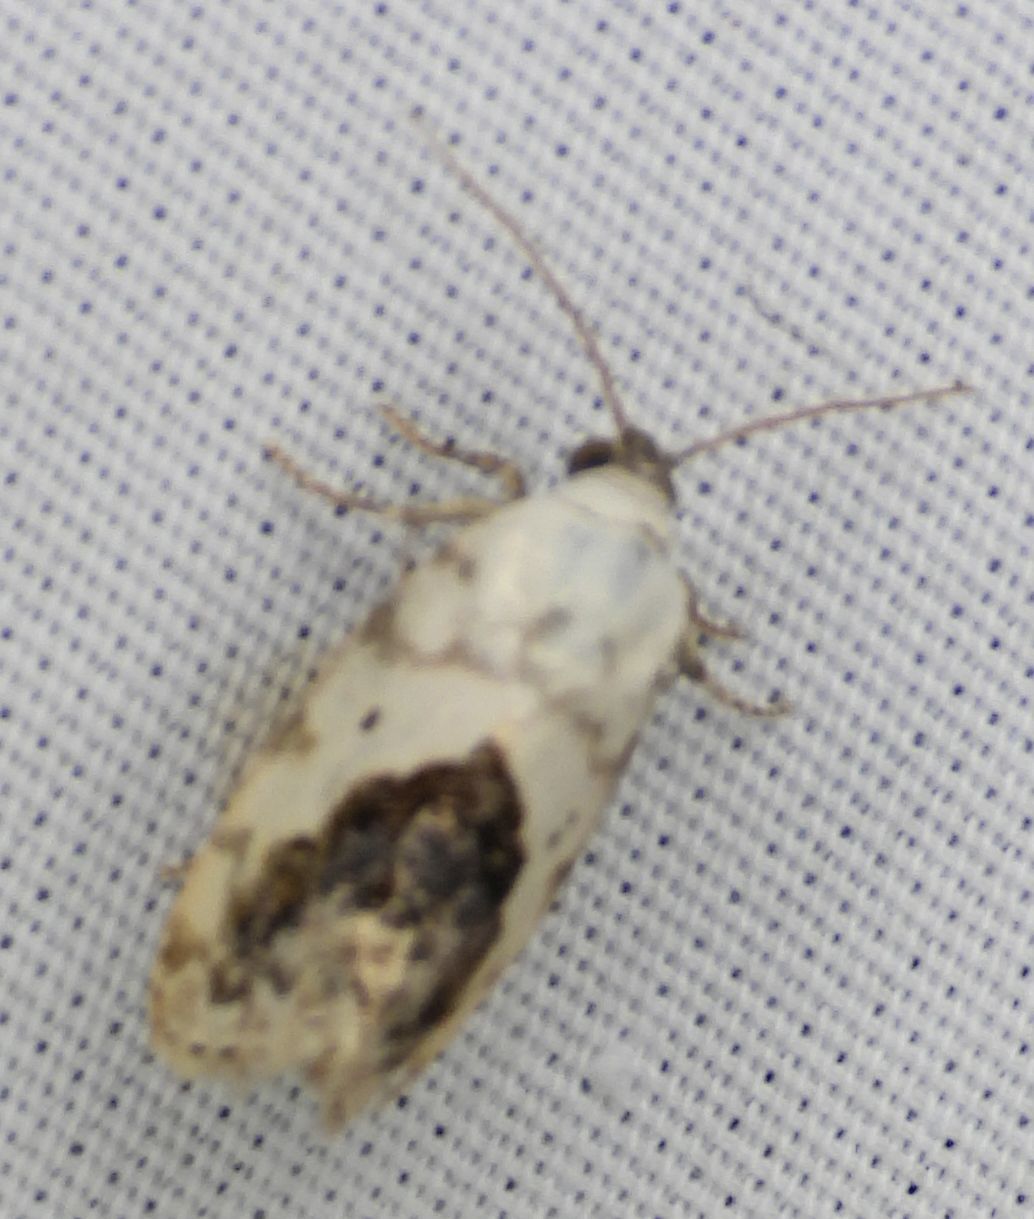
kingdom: Animalia
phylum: Arthropoda
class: Insecta
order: Lepidoptera
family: Noctuidae
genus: Acontia
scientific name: Acontia erastrioides
